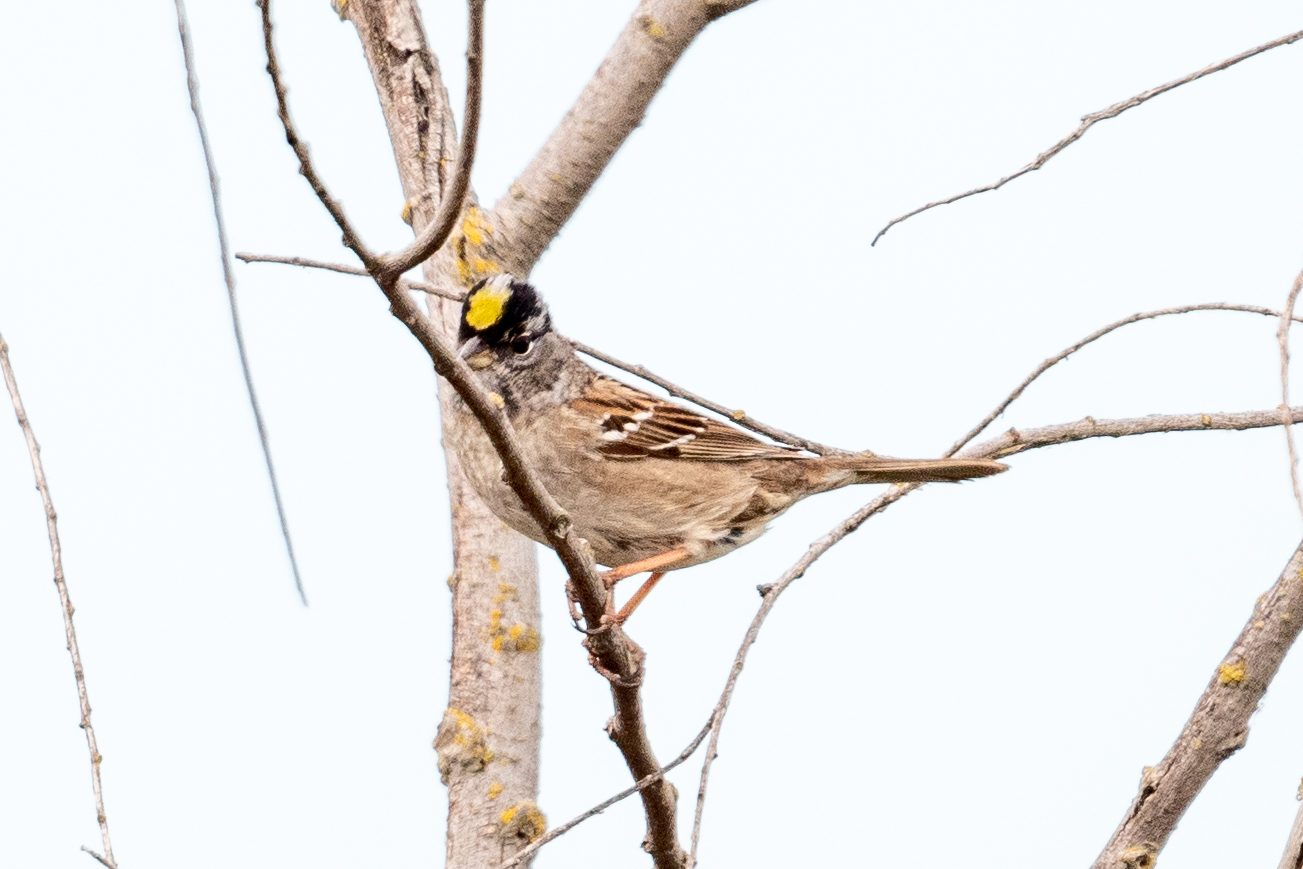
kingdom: Animalia
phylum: Chordata
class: Aves
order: Passeriformes
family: Passerellidae
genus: Zonotrichia
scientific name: Zonotrichia atricapilla
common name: Golden-crowned sparrow
